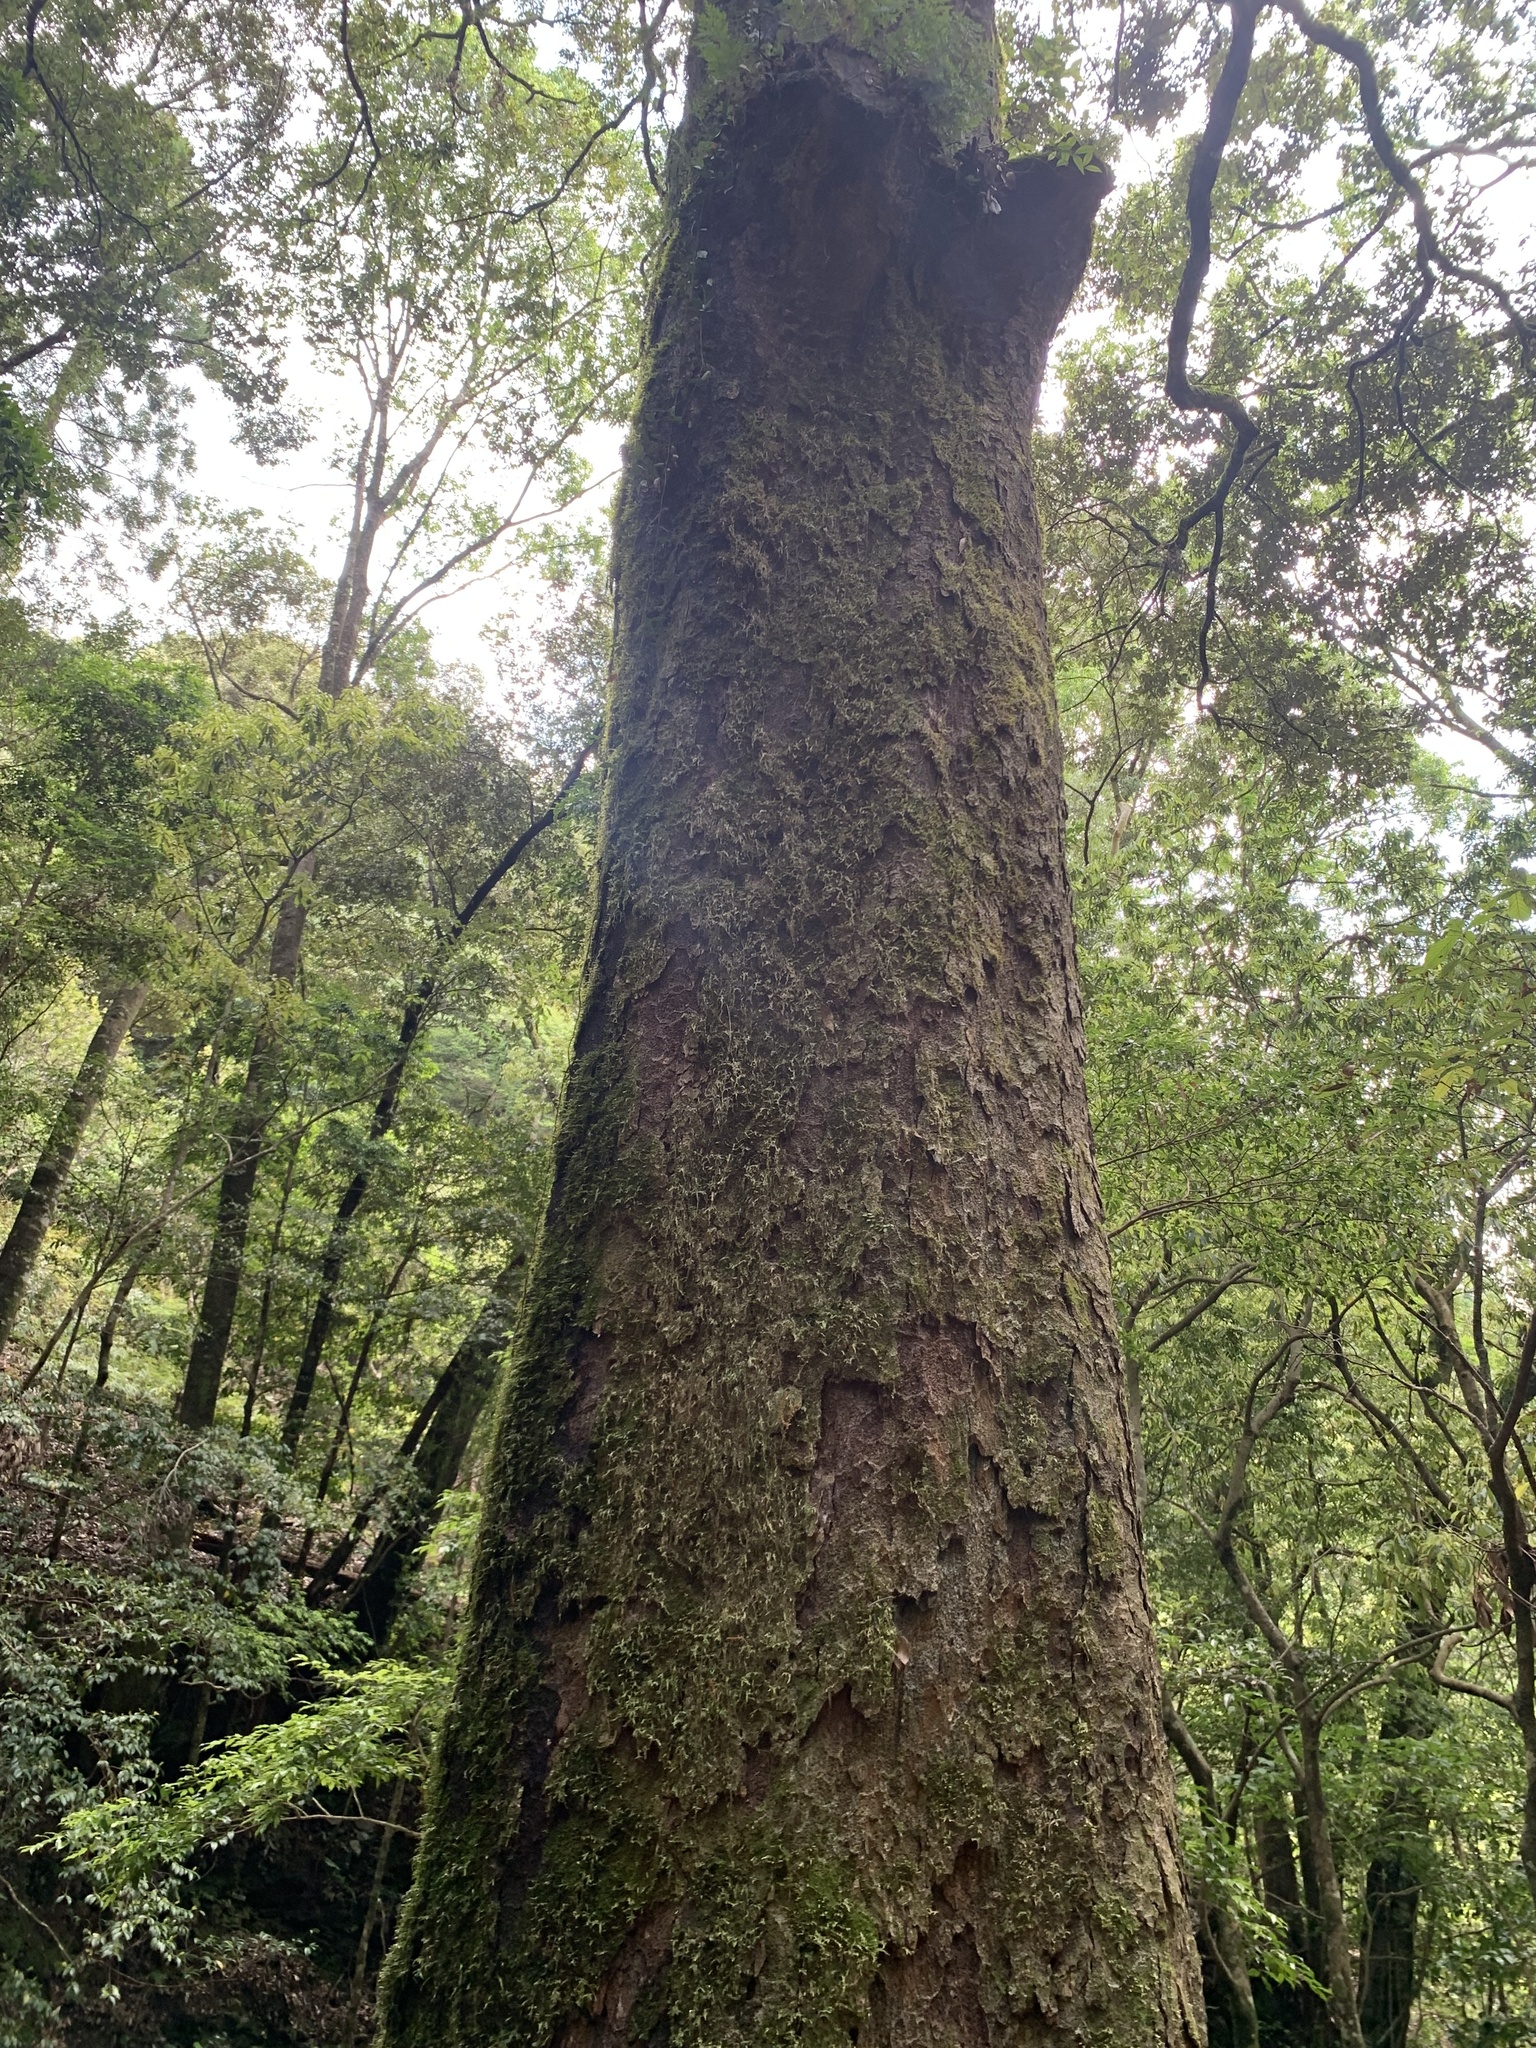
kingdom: Plantae
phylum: Tracheophyta
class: Magnoliopsida
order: Fagales
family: Fagaceae
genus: Quercus
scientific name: Quercus gilva
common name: Redbark oak
